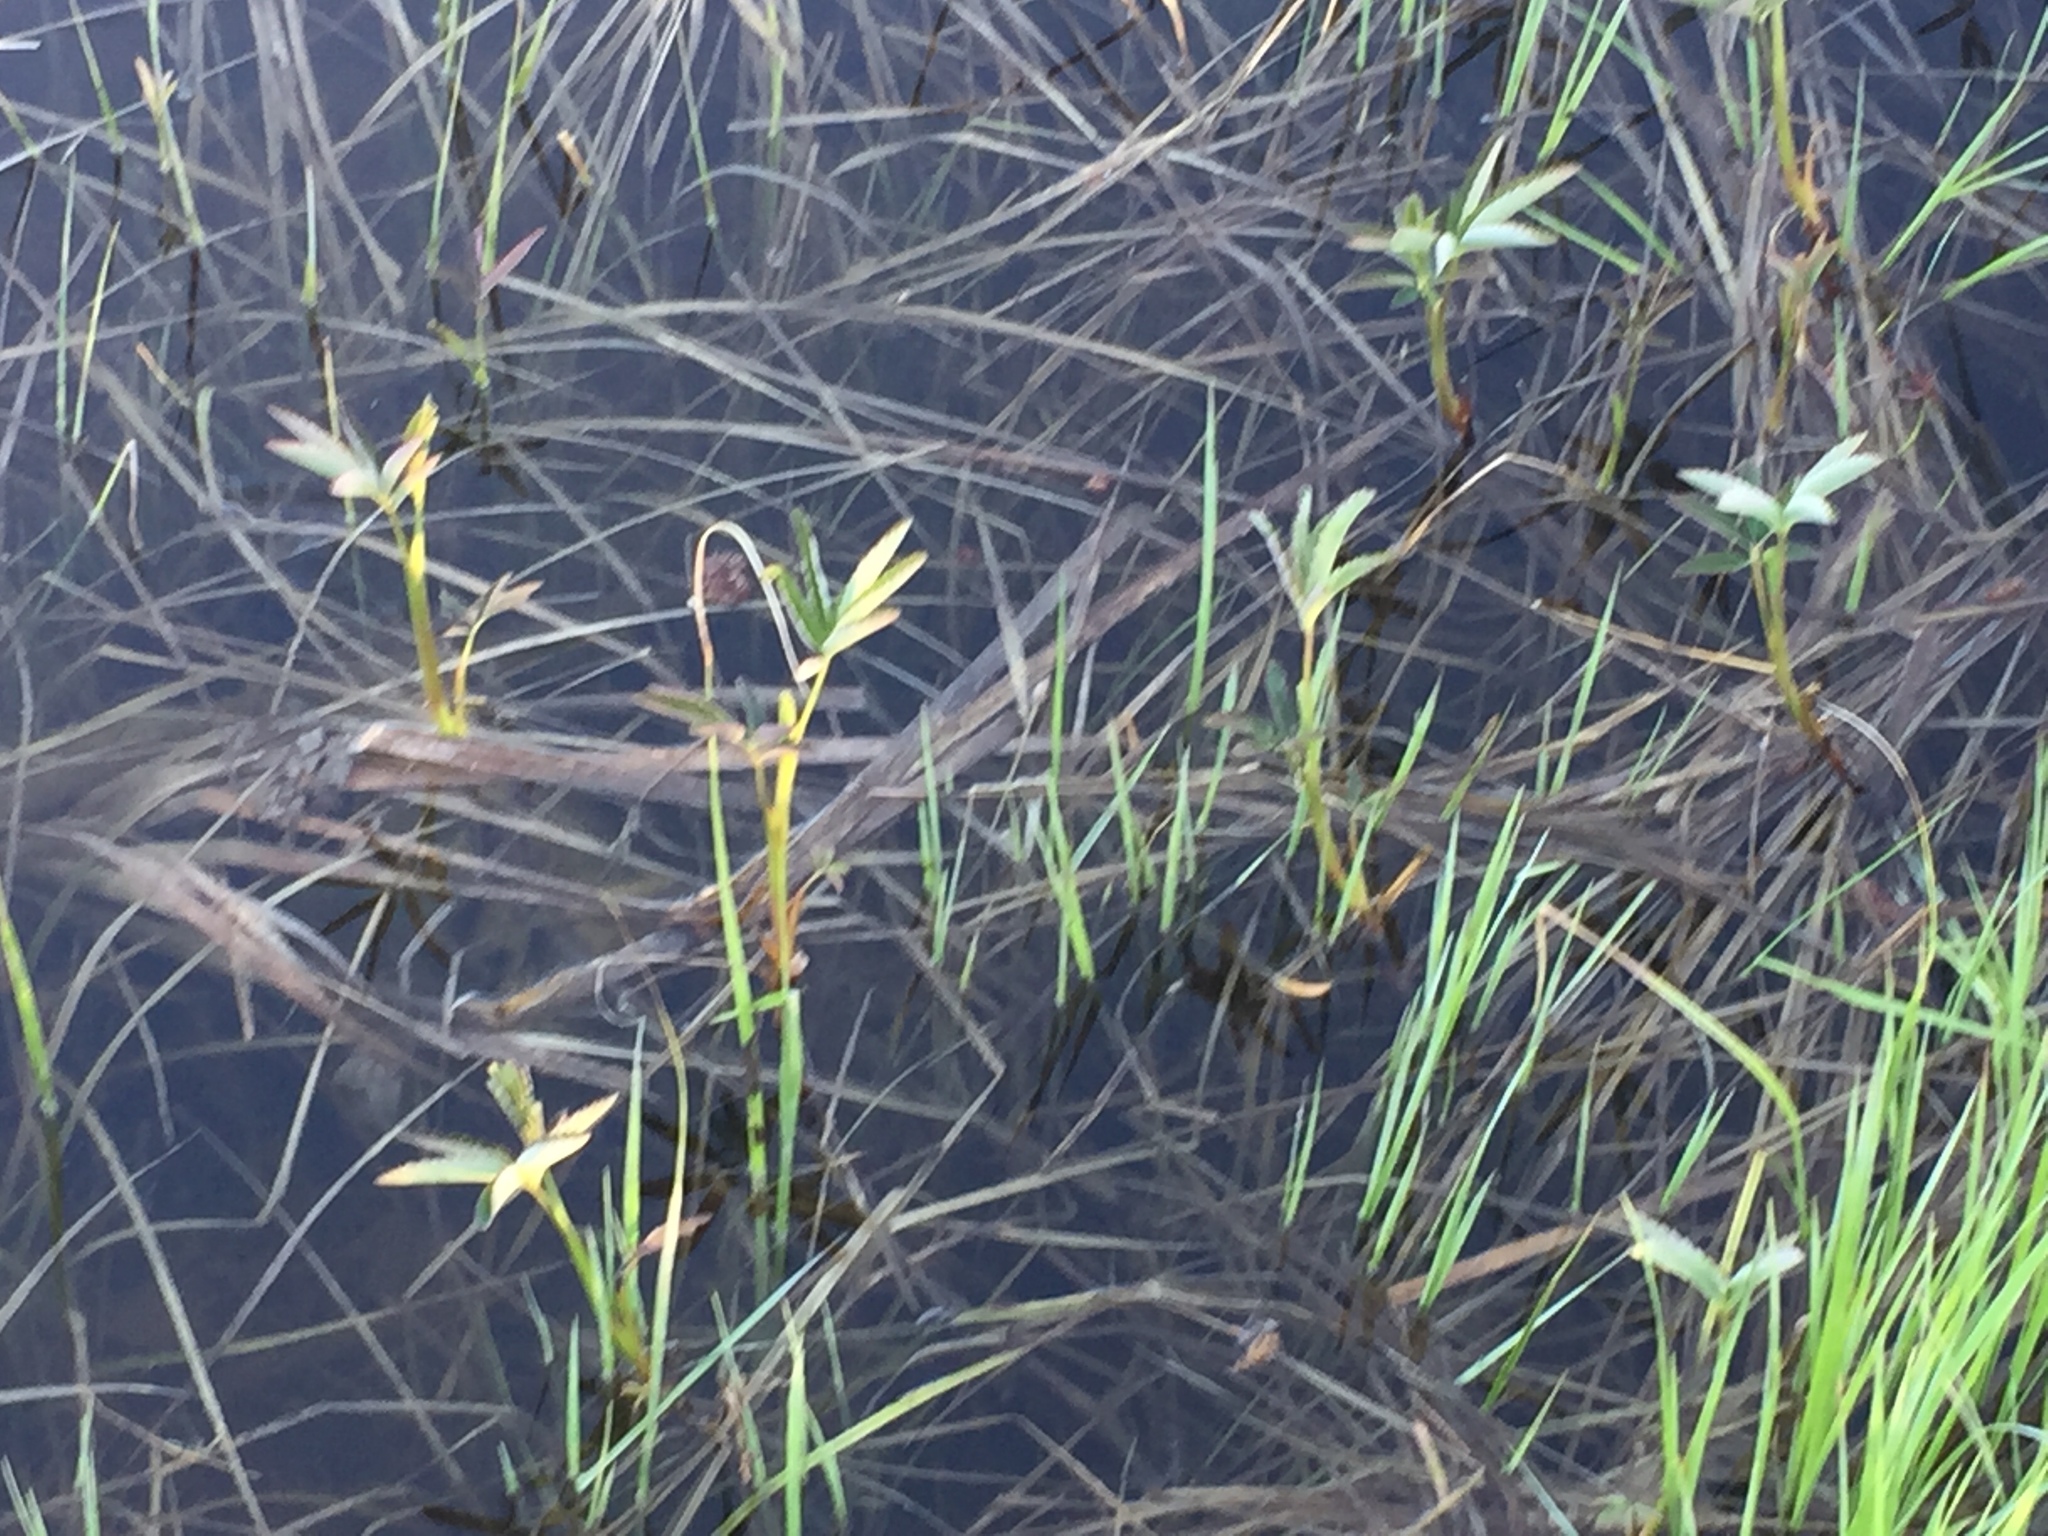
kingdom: Plantae
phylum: Tracheophyta
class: Magnoliopsida
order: Rosales
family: Rosaceae
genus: Comarum
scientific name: Comarum palustre
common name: Marsh cinquefoil
